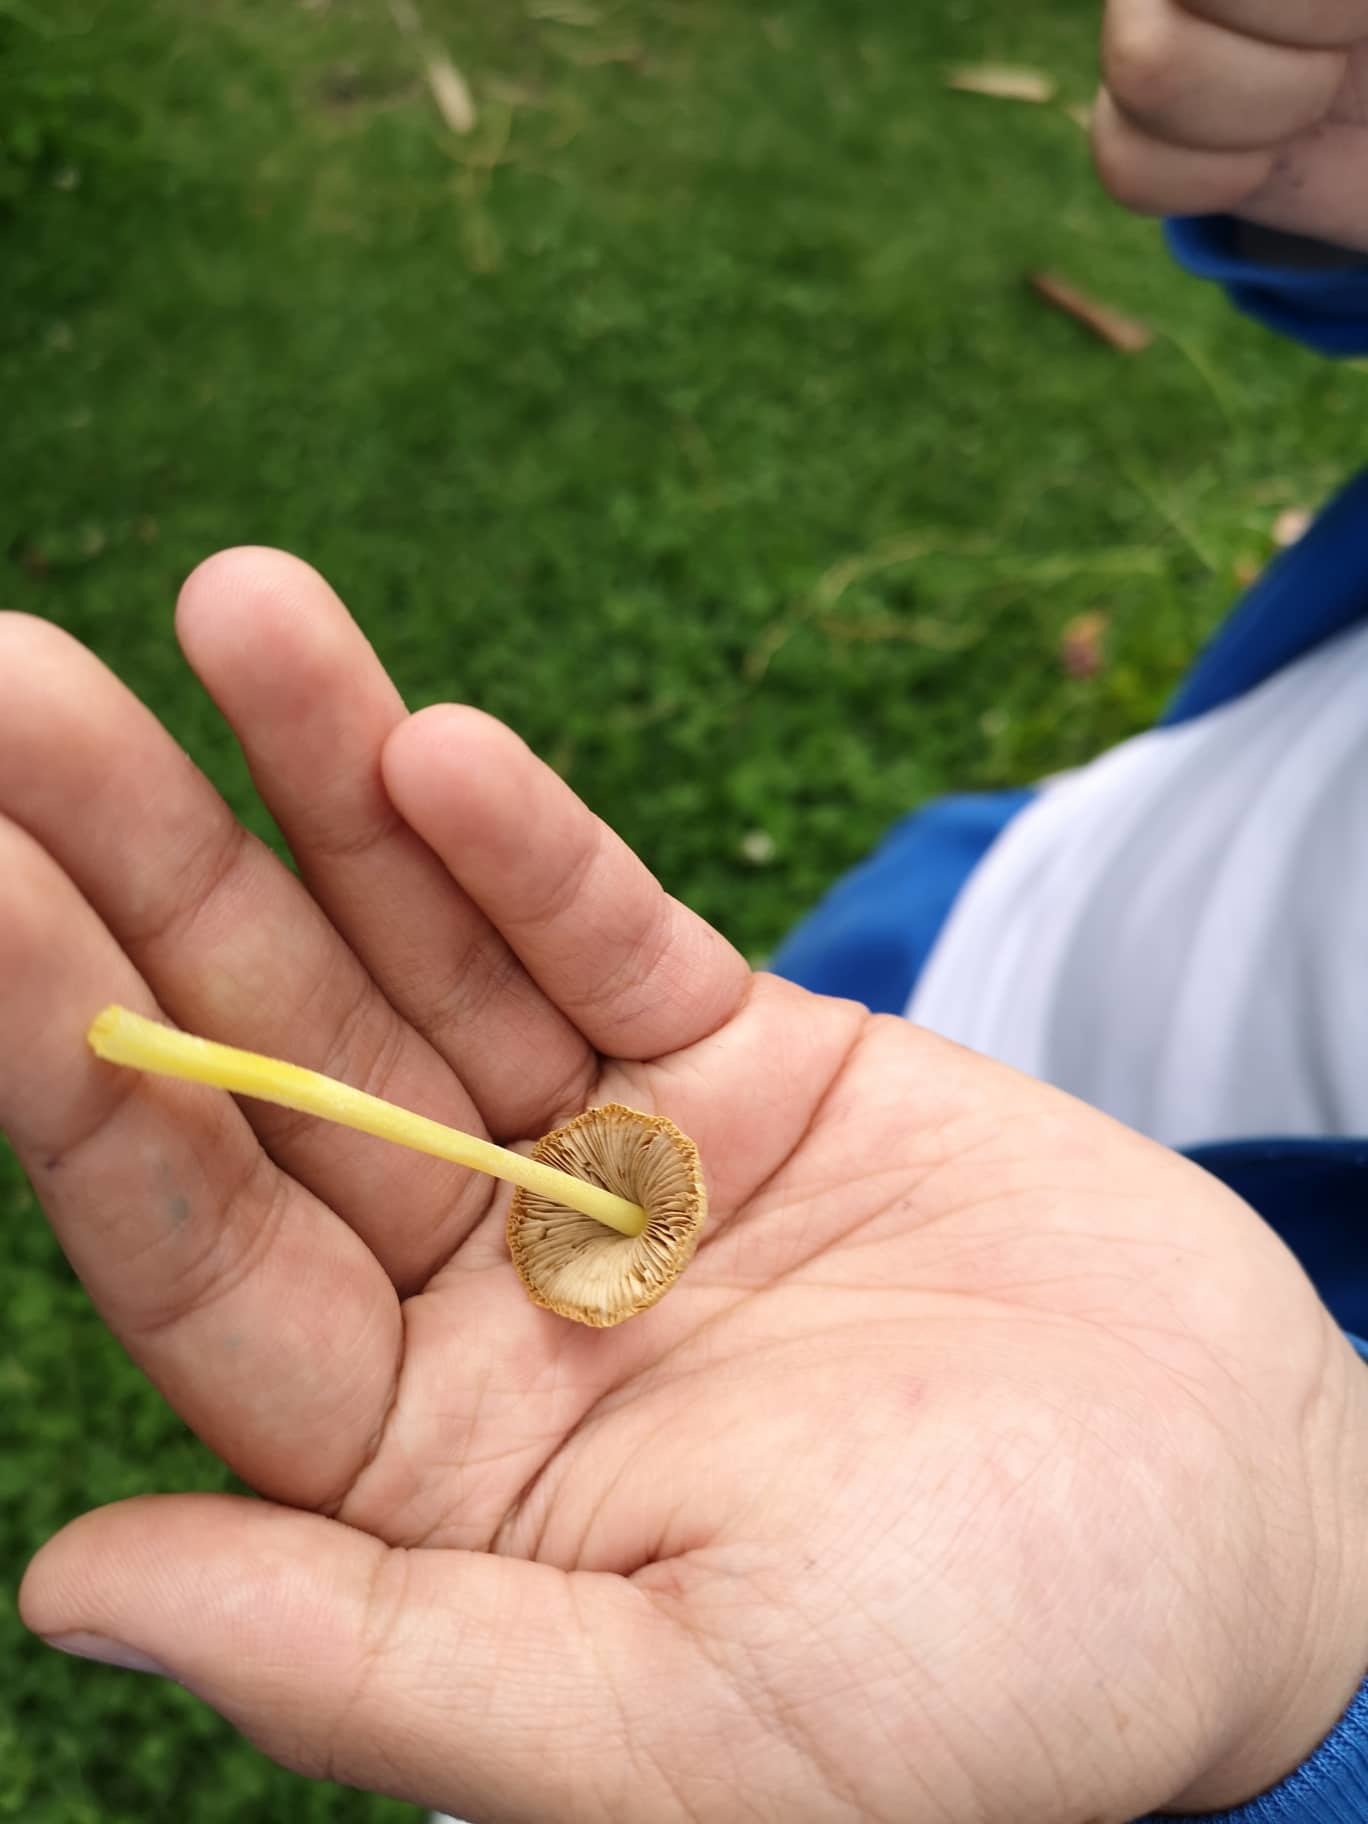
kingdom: Fungi
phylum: Basidiomycota
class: Agaricomycetes
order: Agaricales
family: Bolbitiaceae
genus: Bolbitius
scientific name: Bolbitius titubans
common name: Yellow fieldcap
